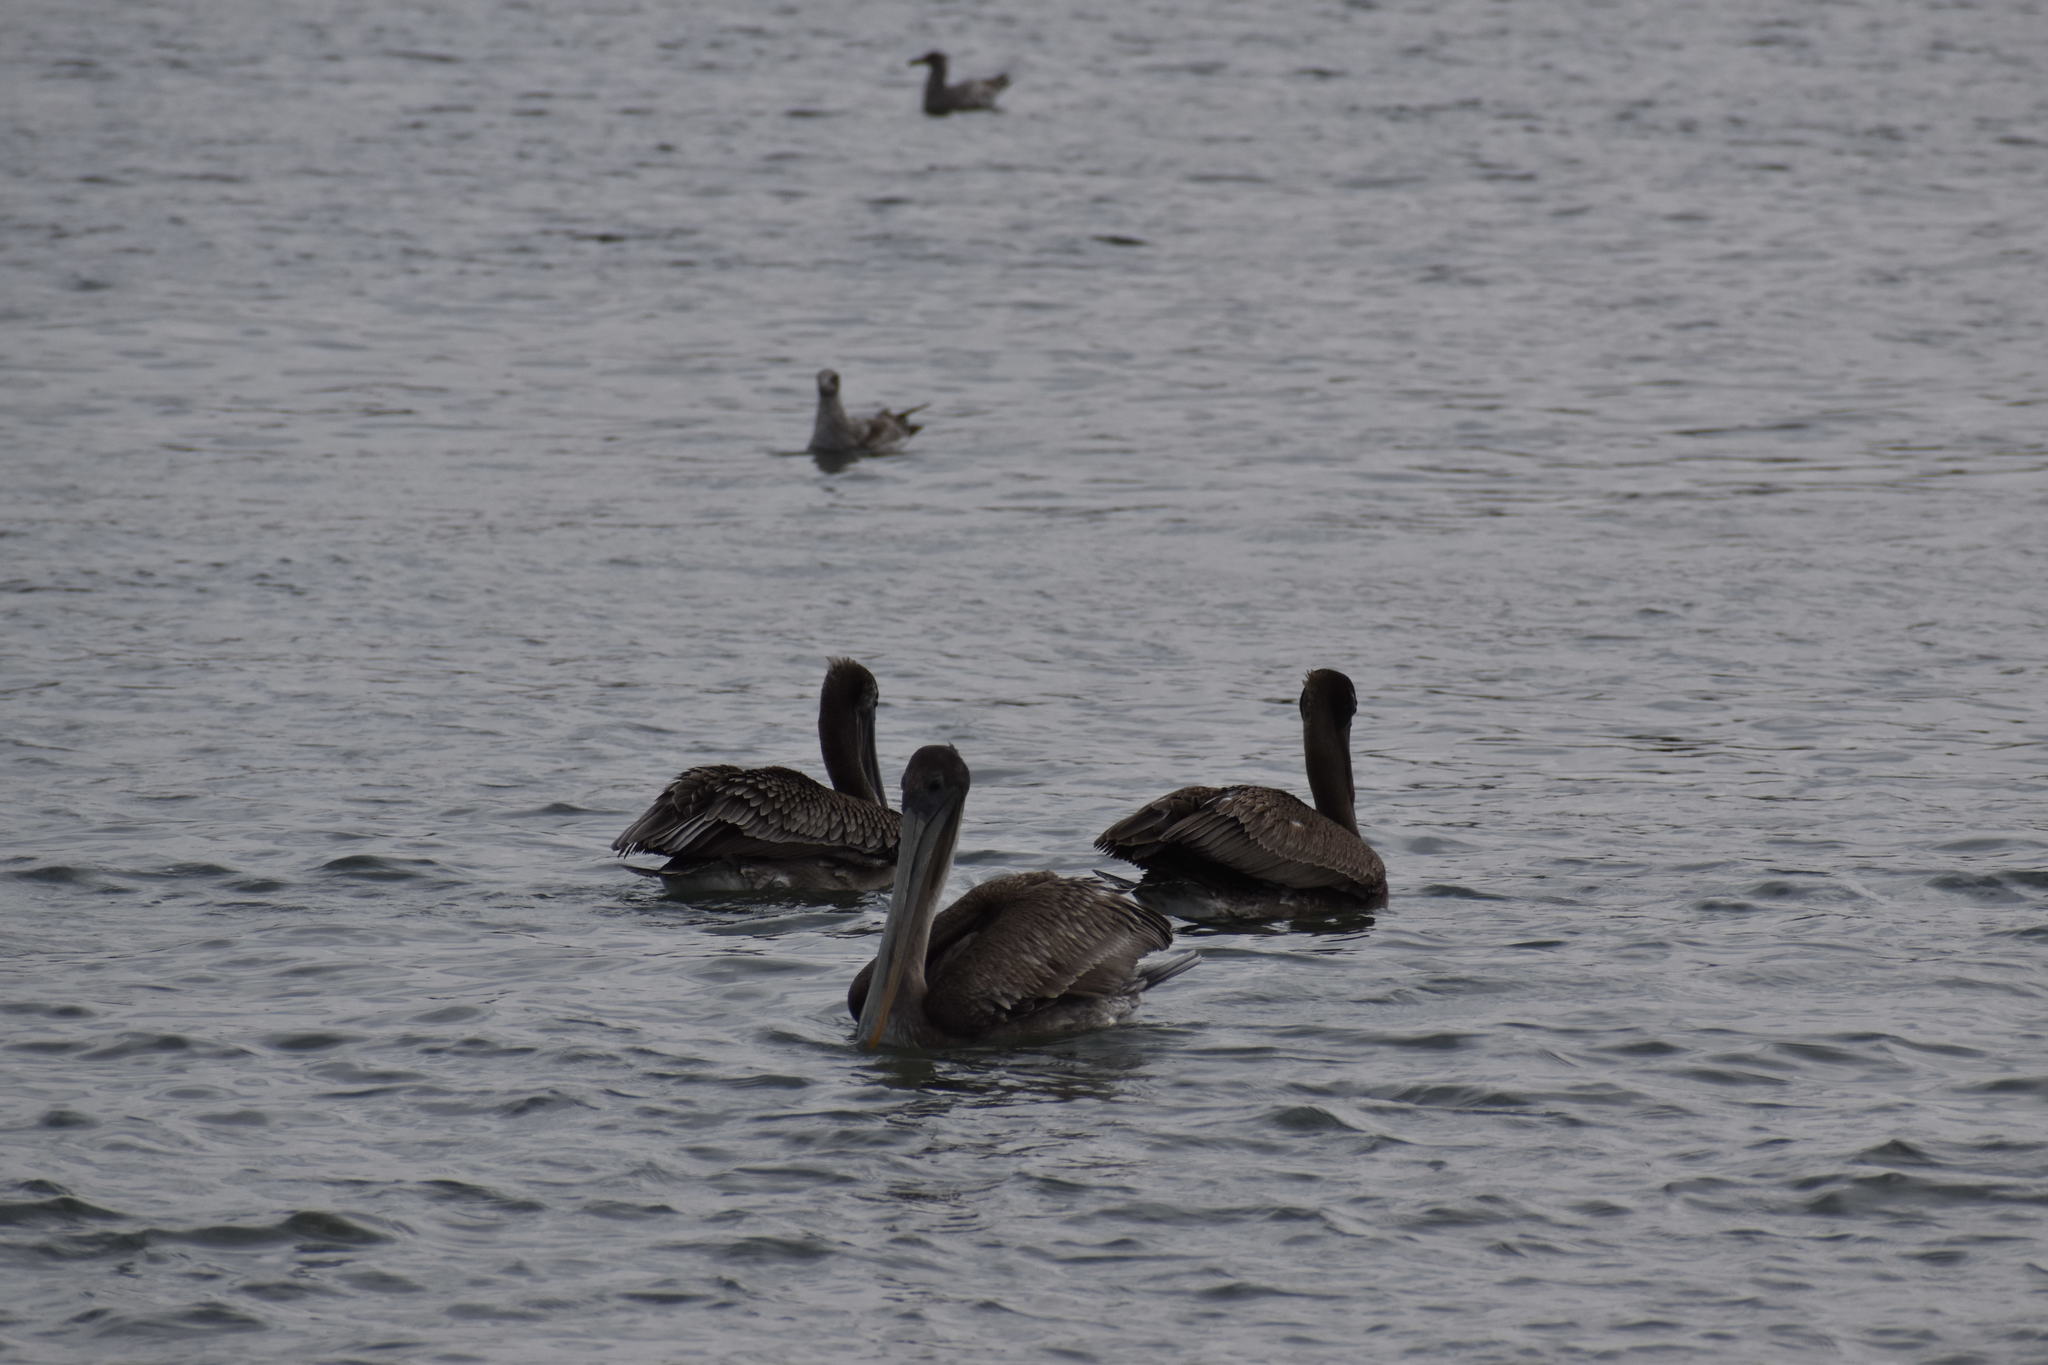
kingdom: Animalia
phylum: Chordata
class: Aves
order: Pelecaniformes
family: Pelecanidae
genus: Pelecanus
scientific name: Pelecanus occidentalis
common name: Brown pelican
